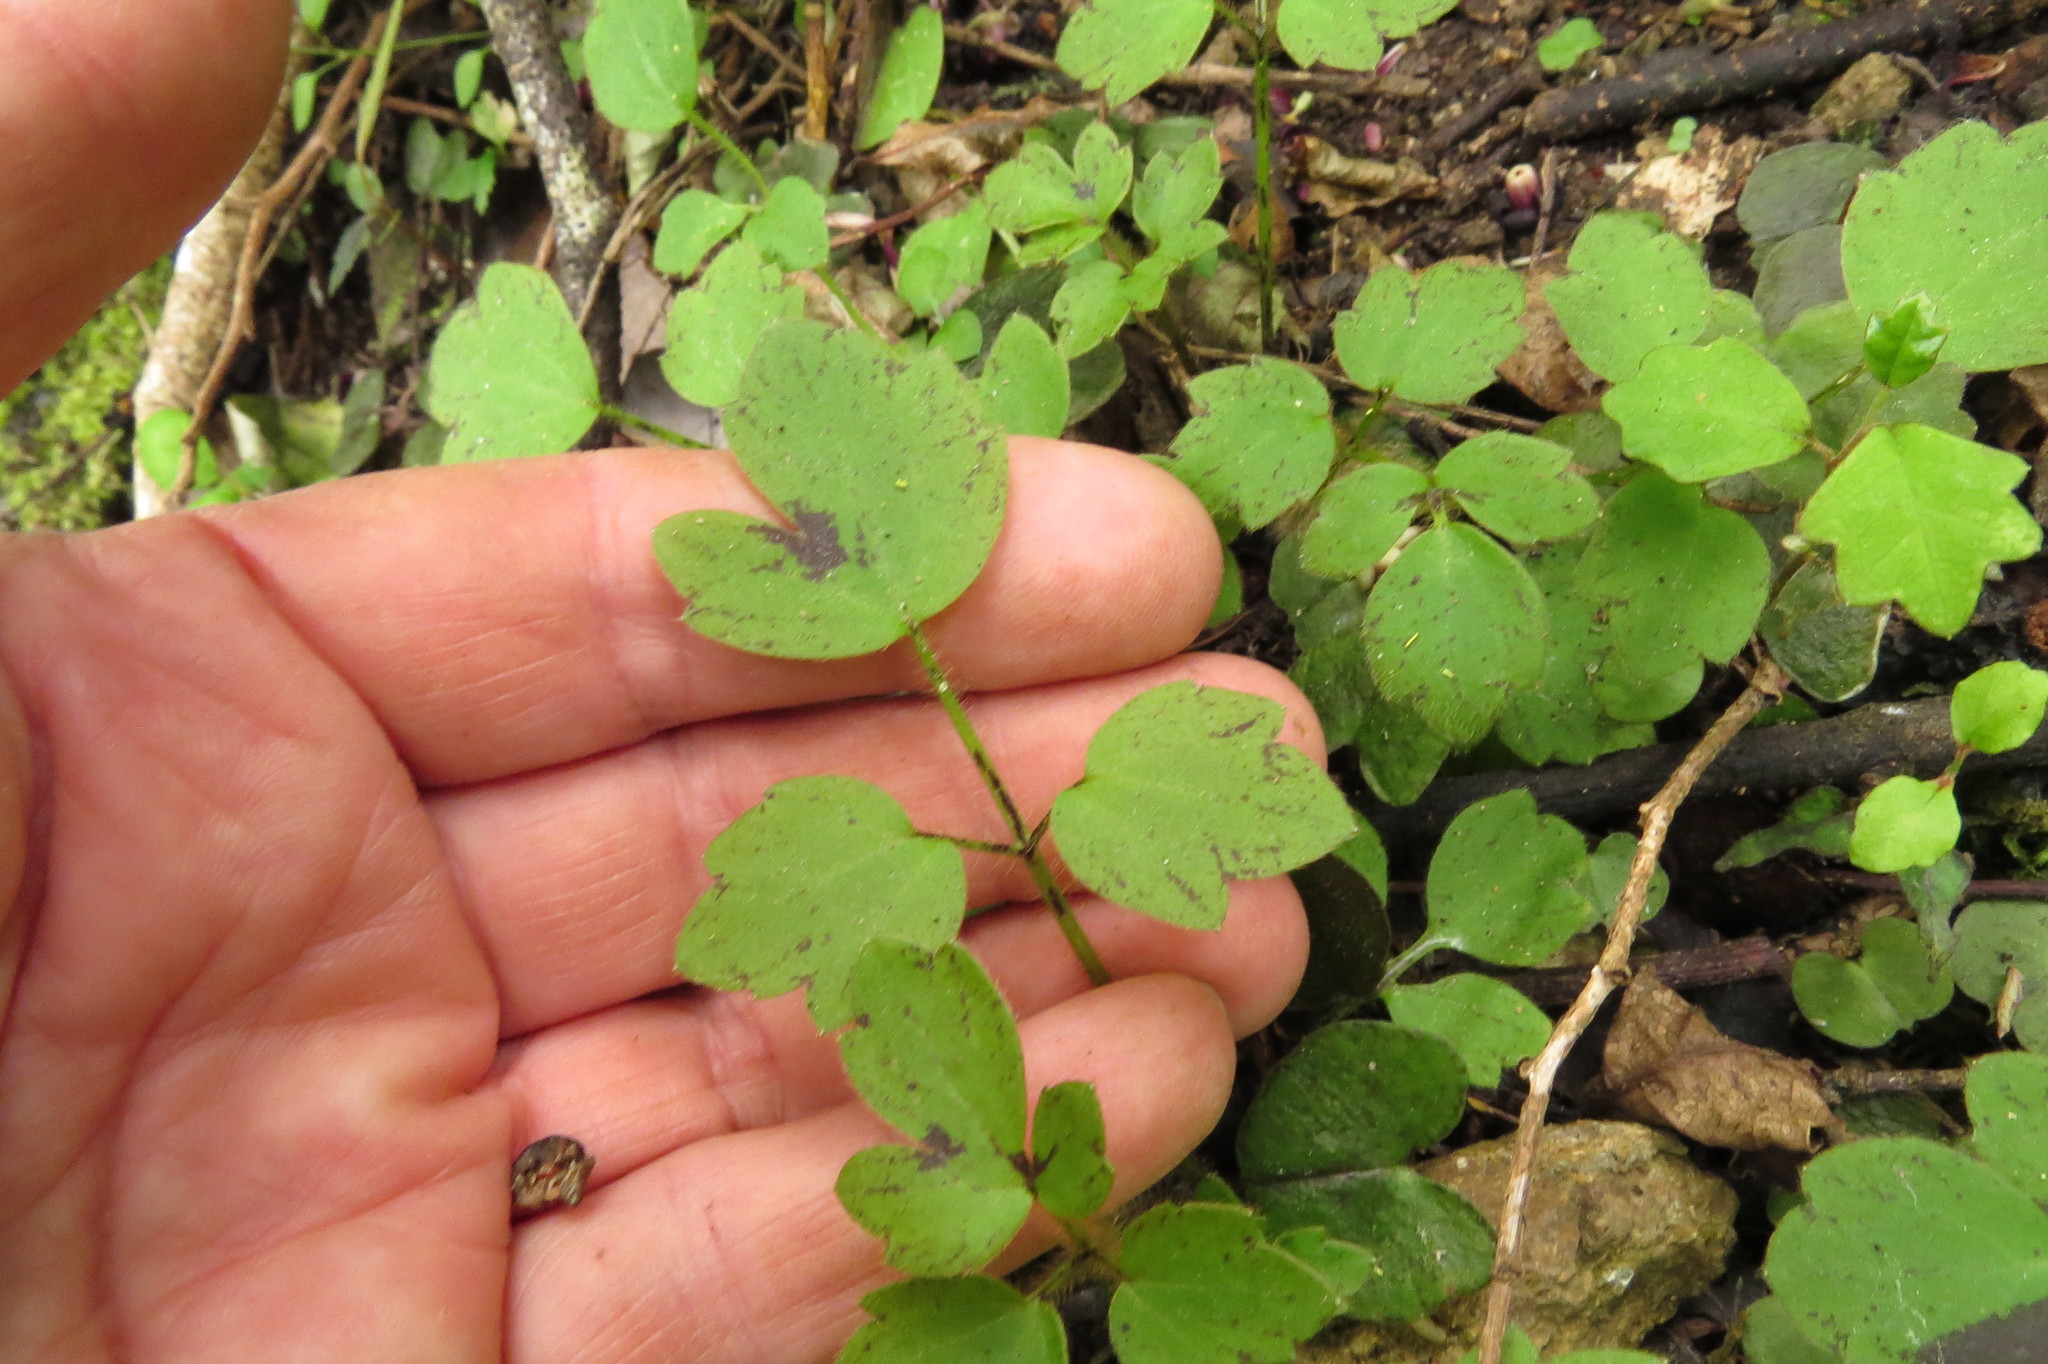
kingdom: Plantae
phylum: Tracheophyta
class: Magnoliopsida
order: Ranunculales
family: Ranunculaceae
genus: Ranunculus
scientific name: Ranunculus reflexus
